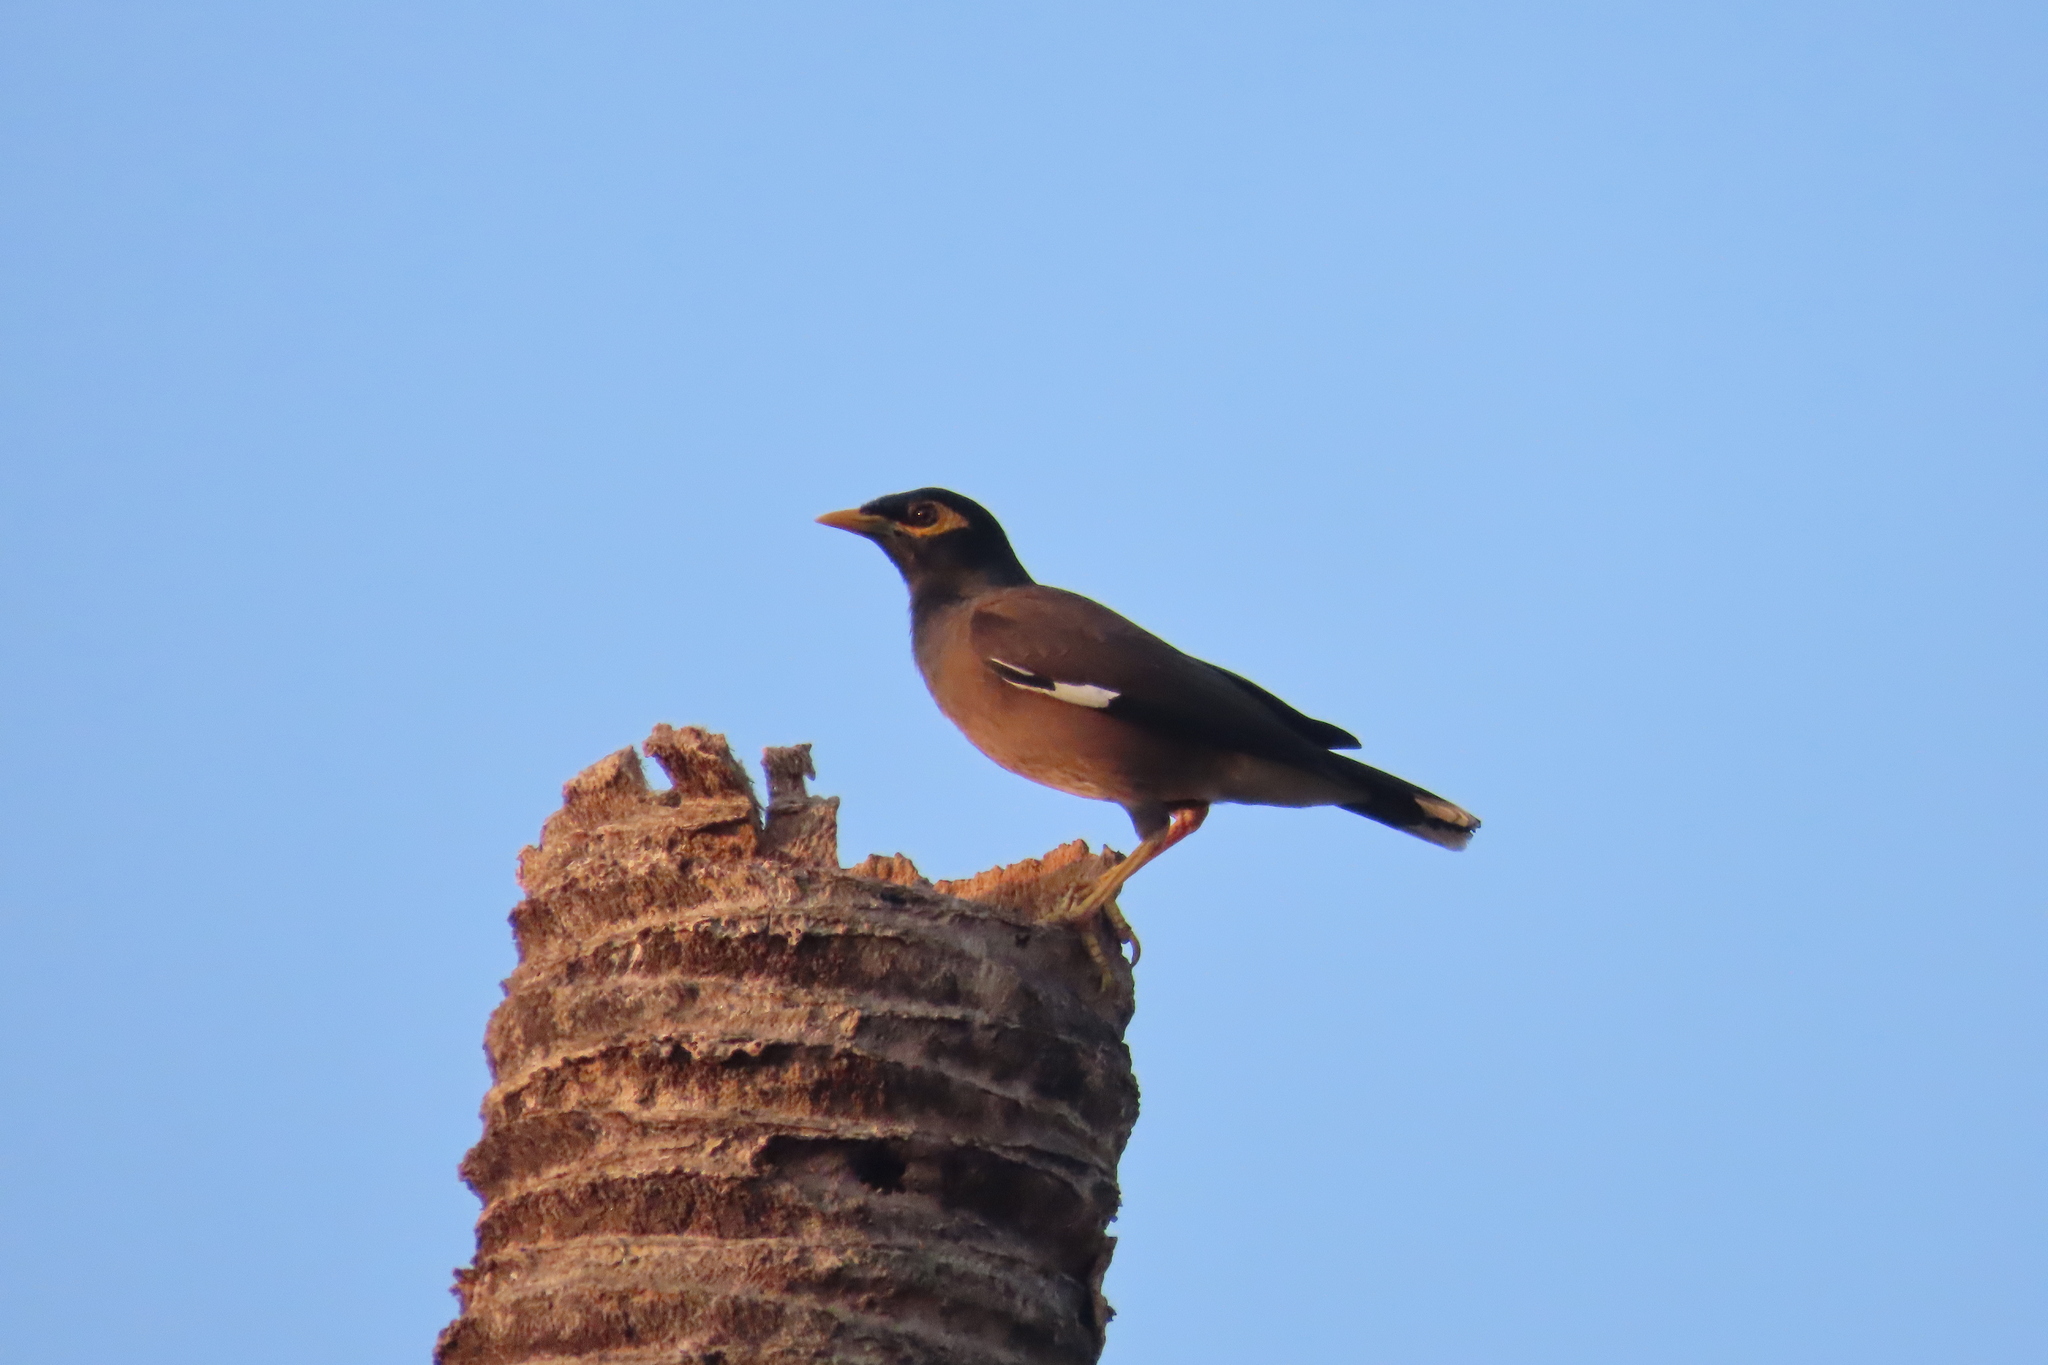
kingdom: Animalia
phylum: Chordata
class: Aves
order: Passeriformes
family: Sturnidae
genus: Acridotheres
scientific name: Acridotheres tristis
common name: Common myna
